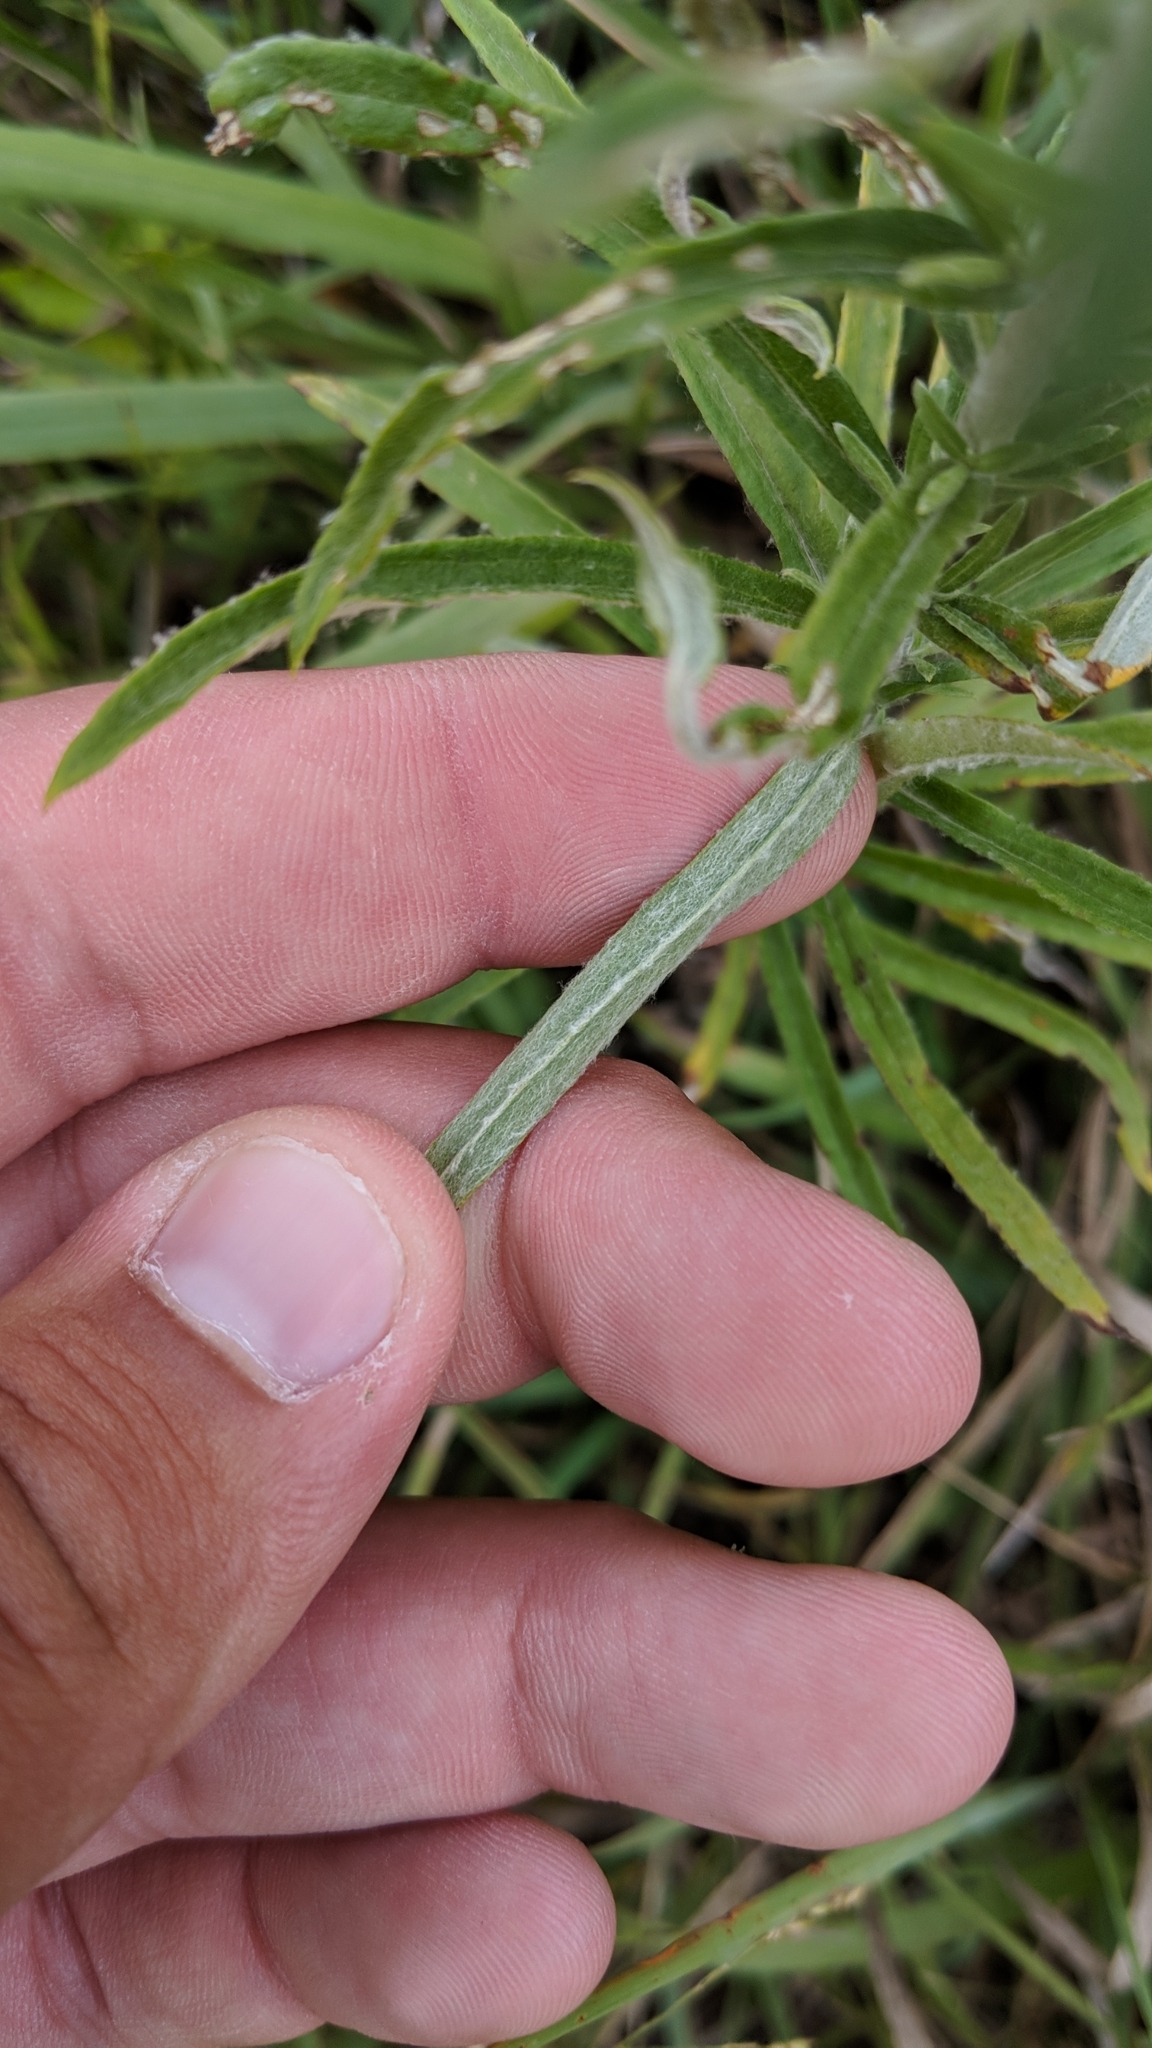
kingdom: Plantae
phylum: Tracheophyta
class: Magnoliopsida
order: Asterales
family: Asteraceae
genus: Pseudognaphalium
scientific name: Pseudognaphalium obtusifolium
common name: Eastern rabbit-tobacco
